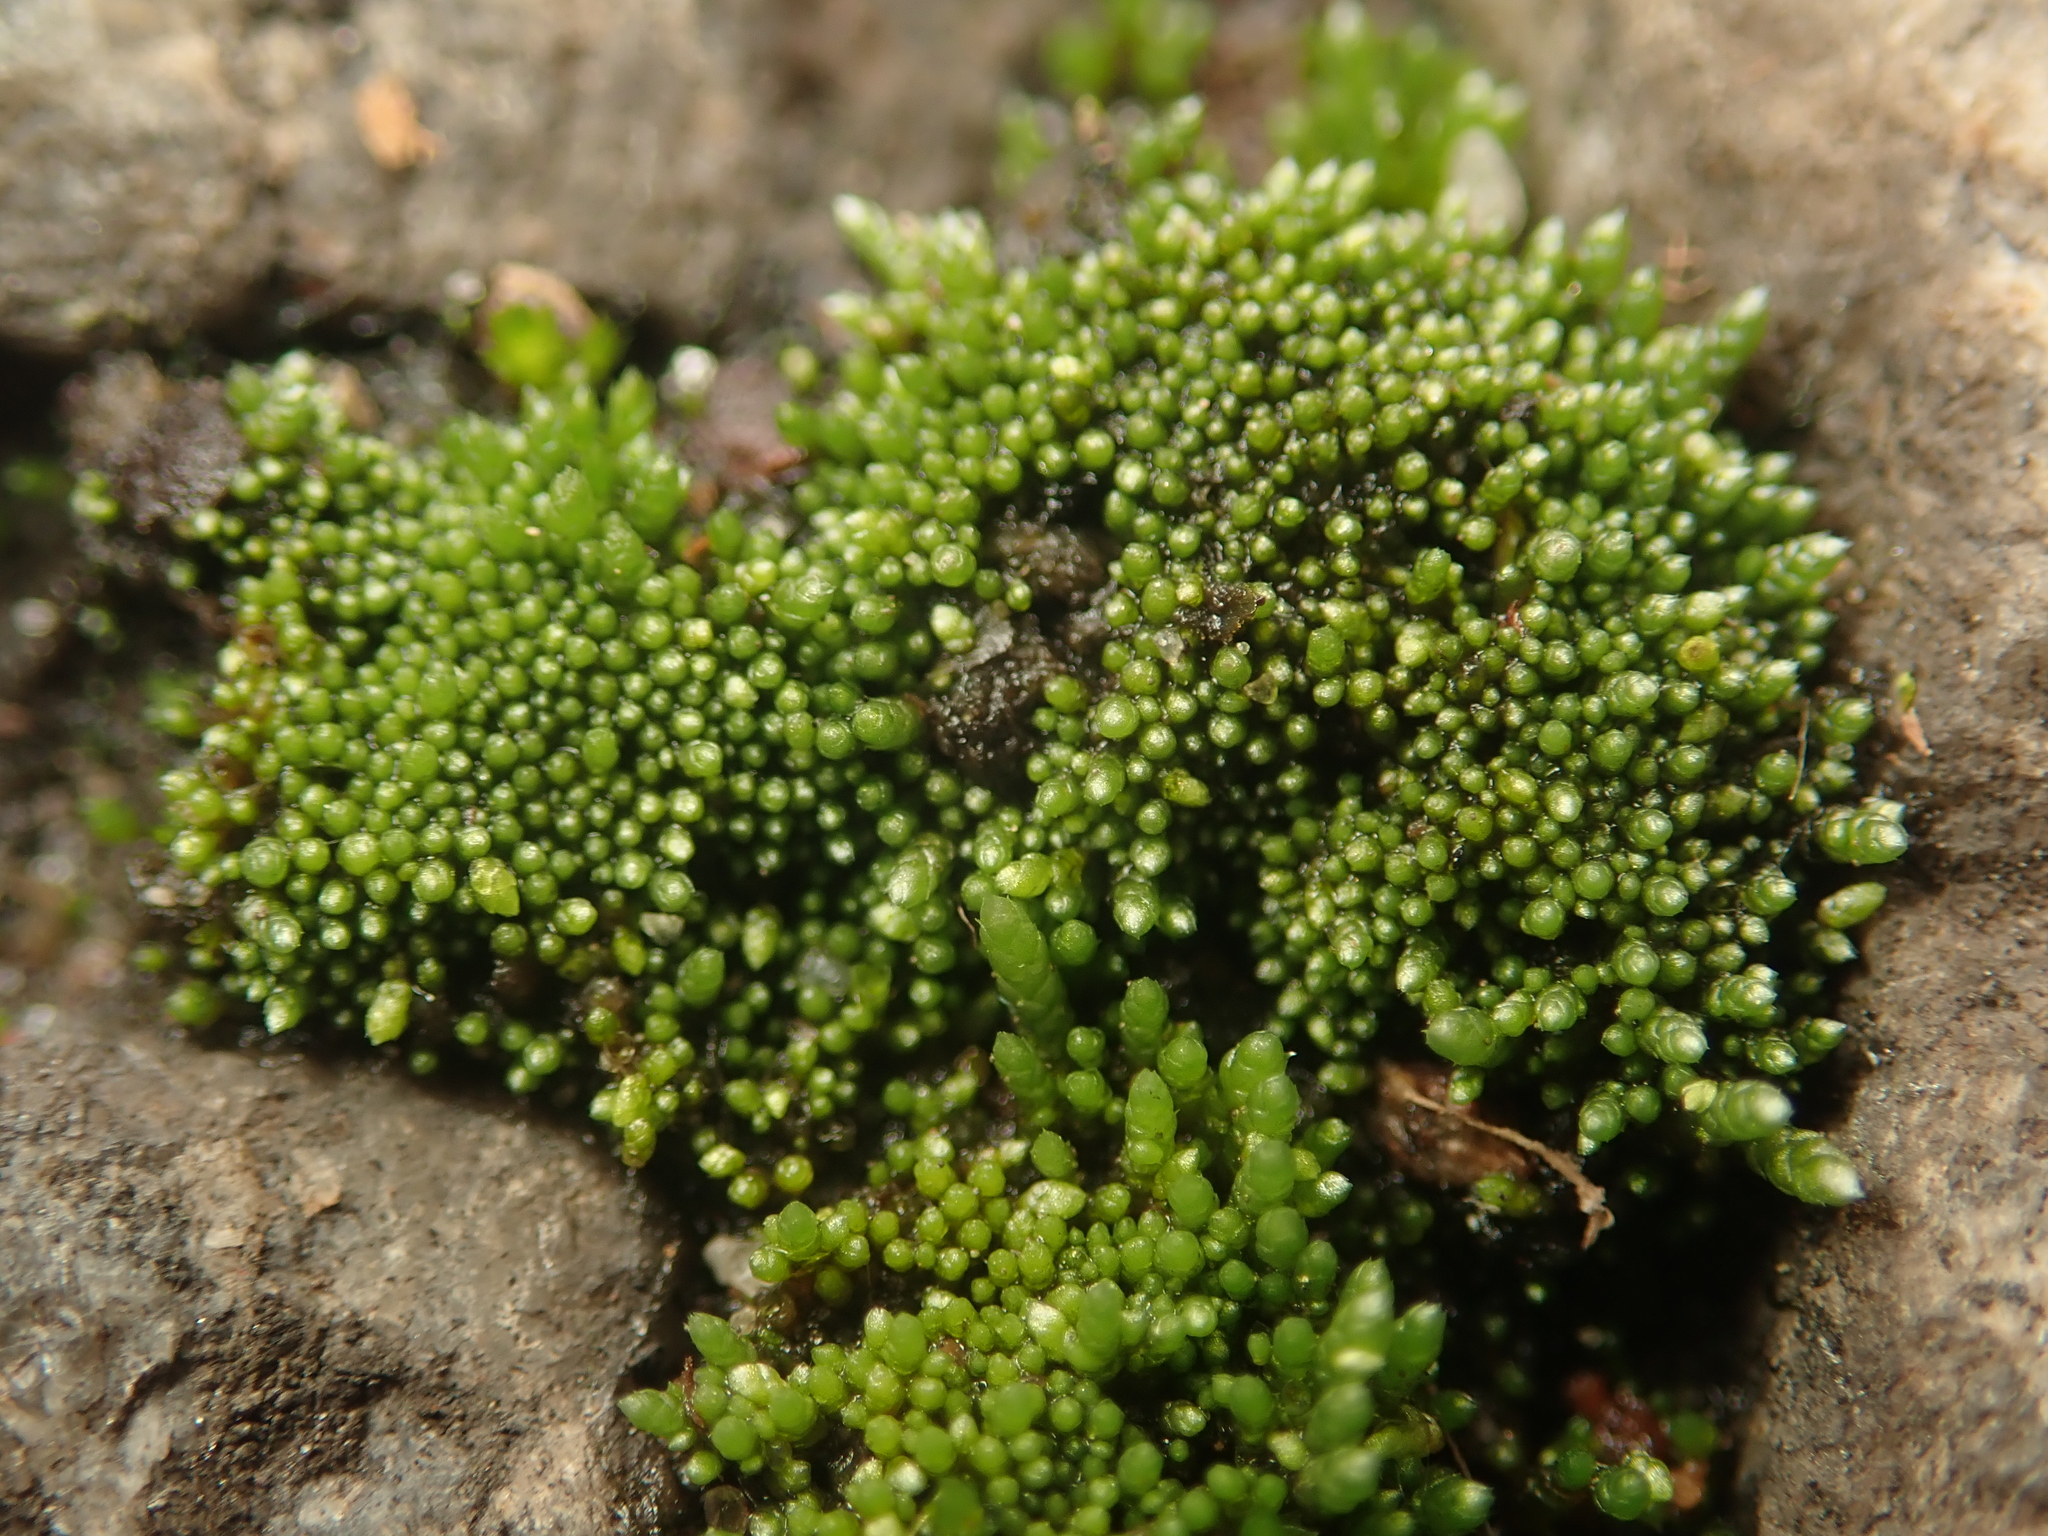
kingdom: Plantae
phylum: Bryophyta
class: Bryopsida
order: Bryales
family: Bryaceae
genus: Bryum
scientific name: Bryum argenteum
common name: Silver-moss
